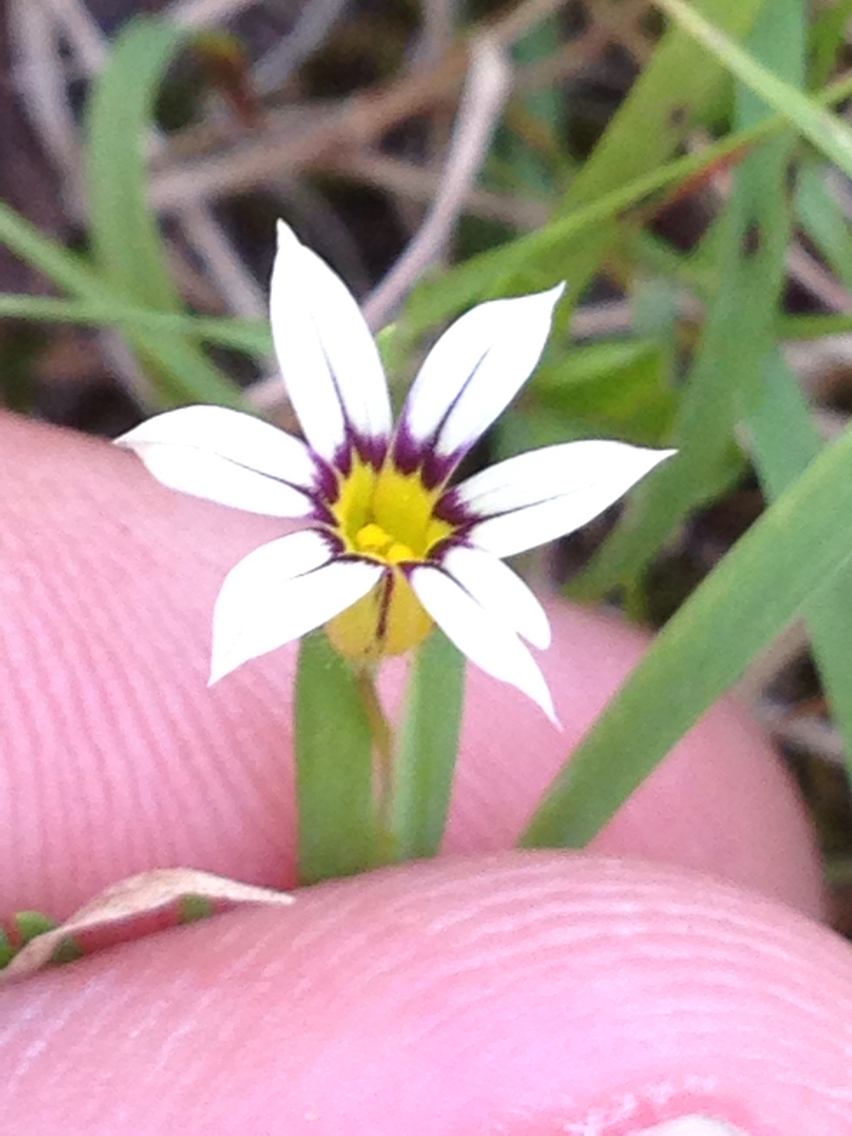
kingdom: Plantae
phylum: Tracheophyta
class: Liliopsida
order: Asparagales
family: Iridaceae
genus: Sisyrinchium
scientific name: Sisyrinchium micranthum
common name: Bermuda pigroot
